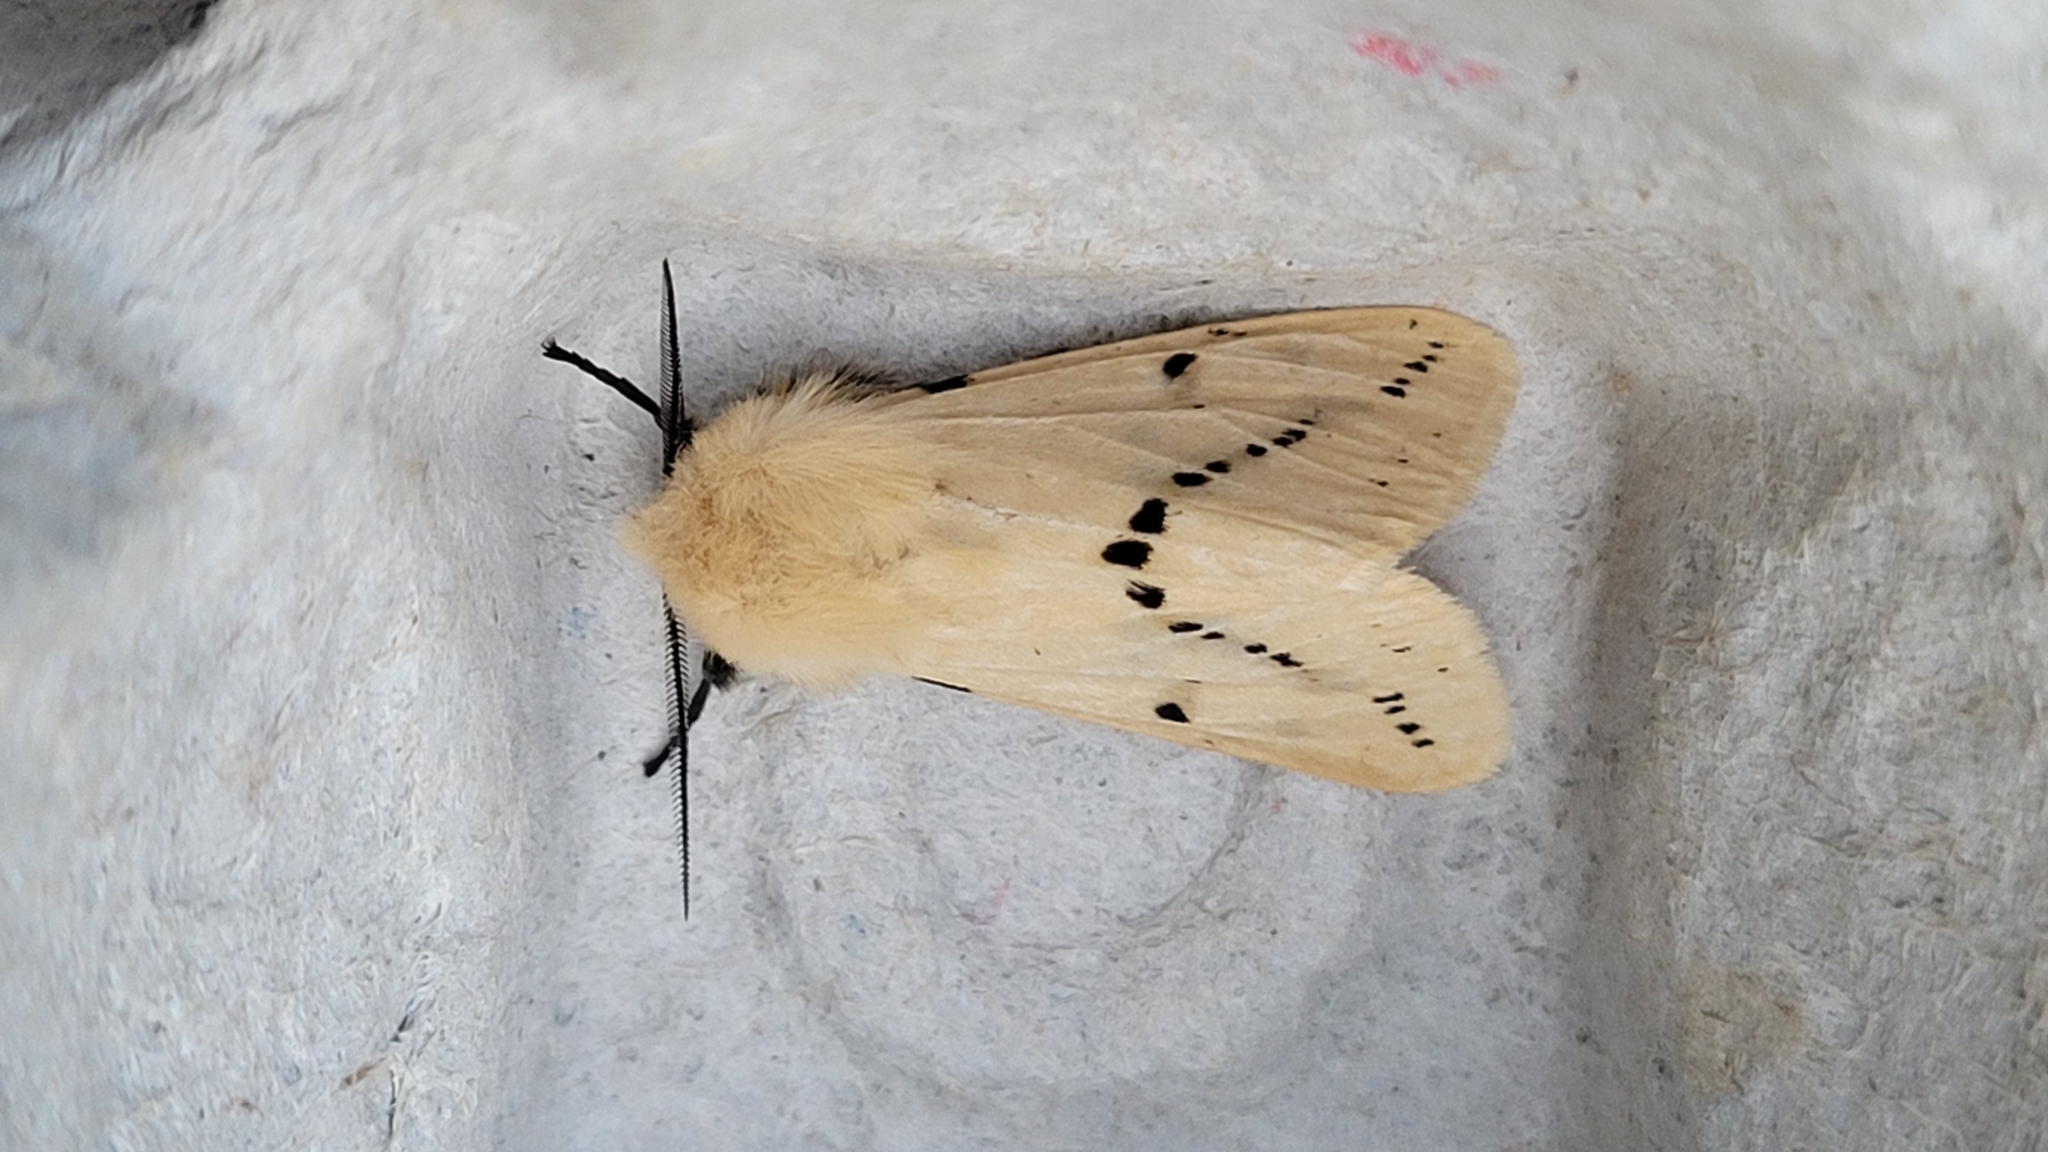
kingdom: Animalia
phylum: Arthropoda
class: Insecta
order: Lepidoptera
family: Erebidae
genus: Spilarctia
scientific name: Spilarctia lutea
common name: Buff ermine
